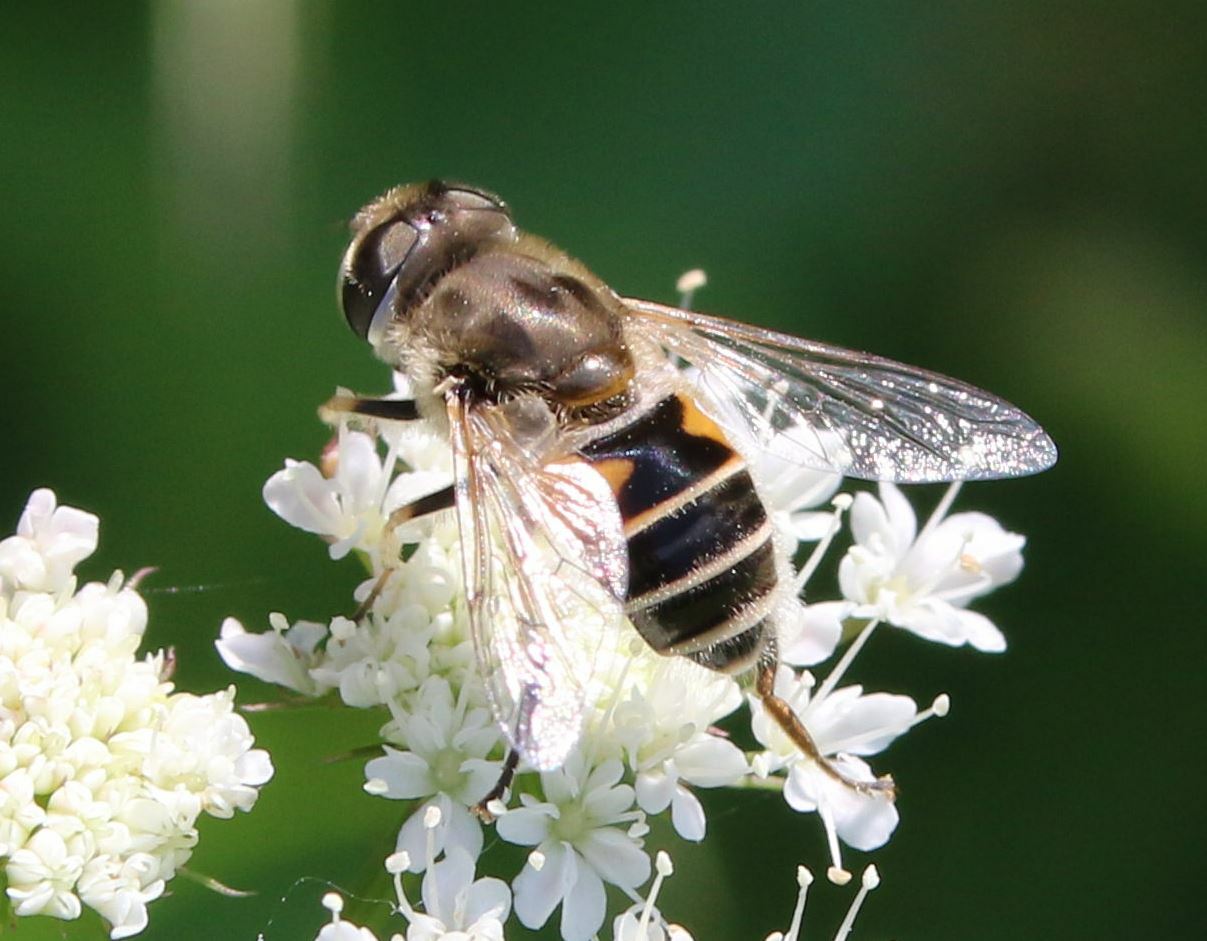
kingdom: Animalia
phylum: Arthropoda
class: Insecta
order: Diptera
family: Syrphidae
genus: Eristalis
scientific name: Eristalis arbustorum
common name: Hover fly
